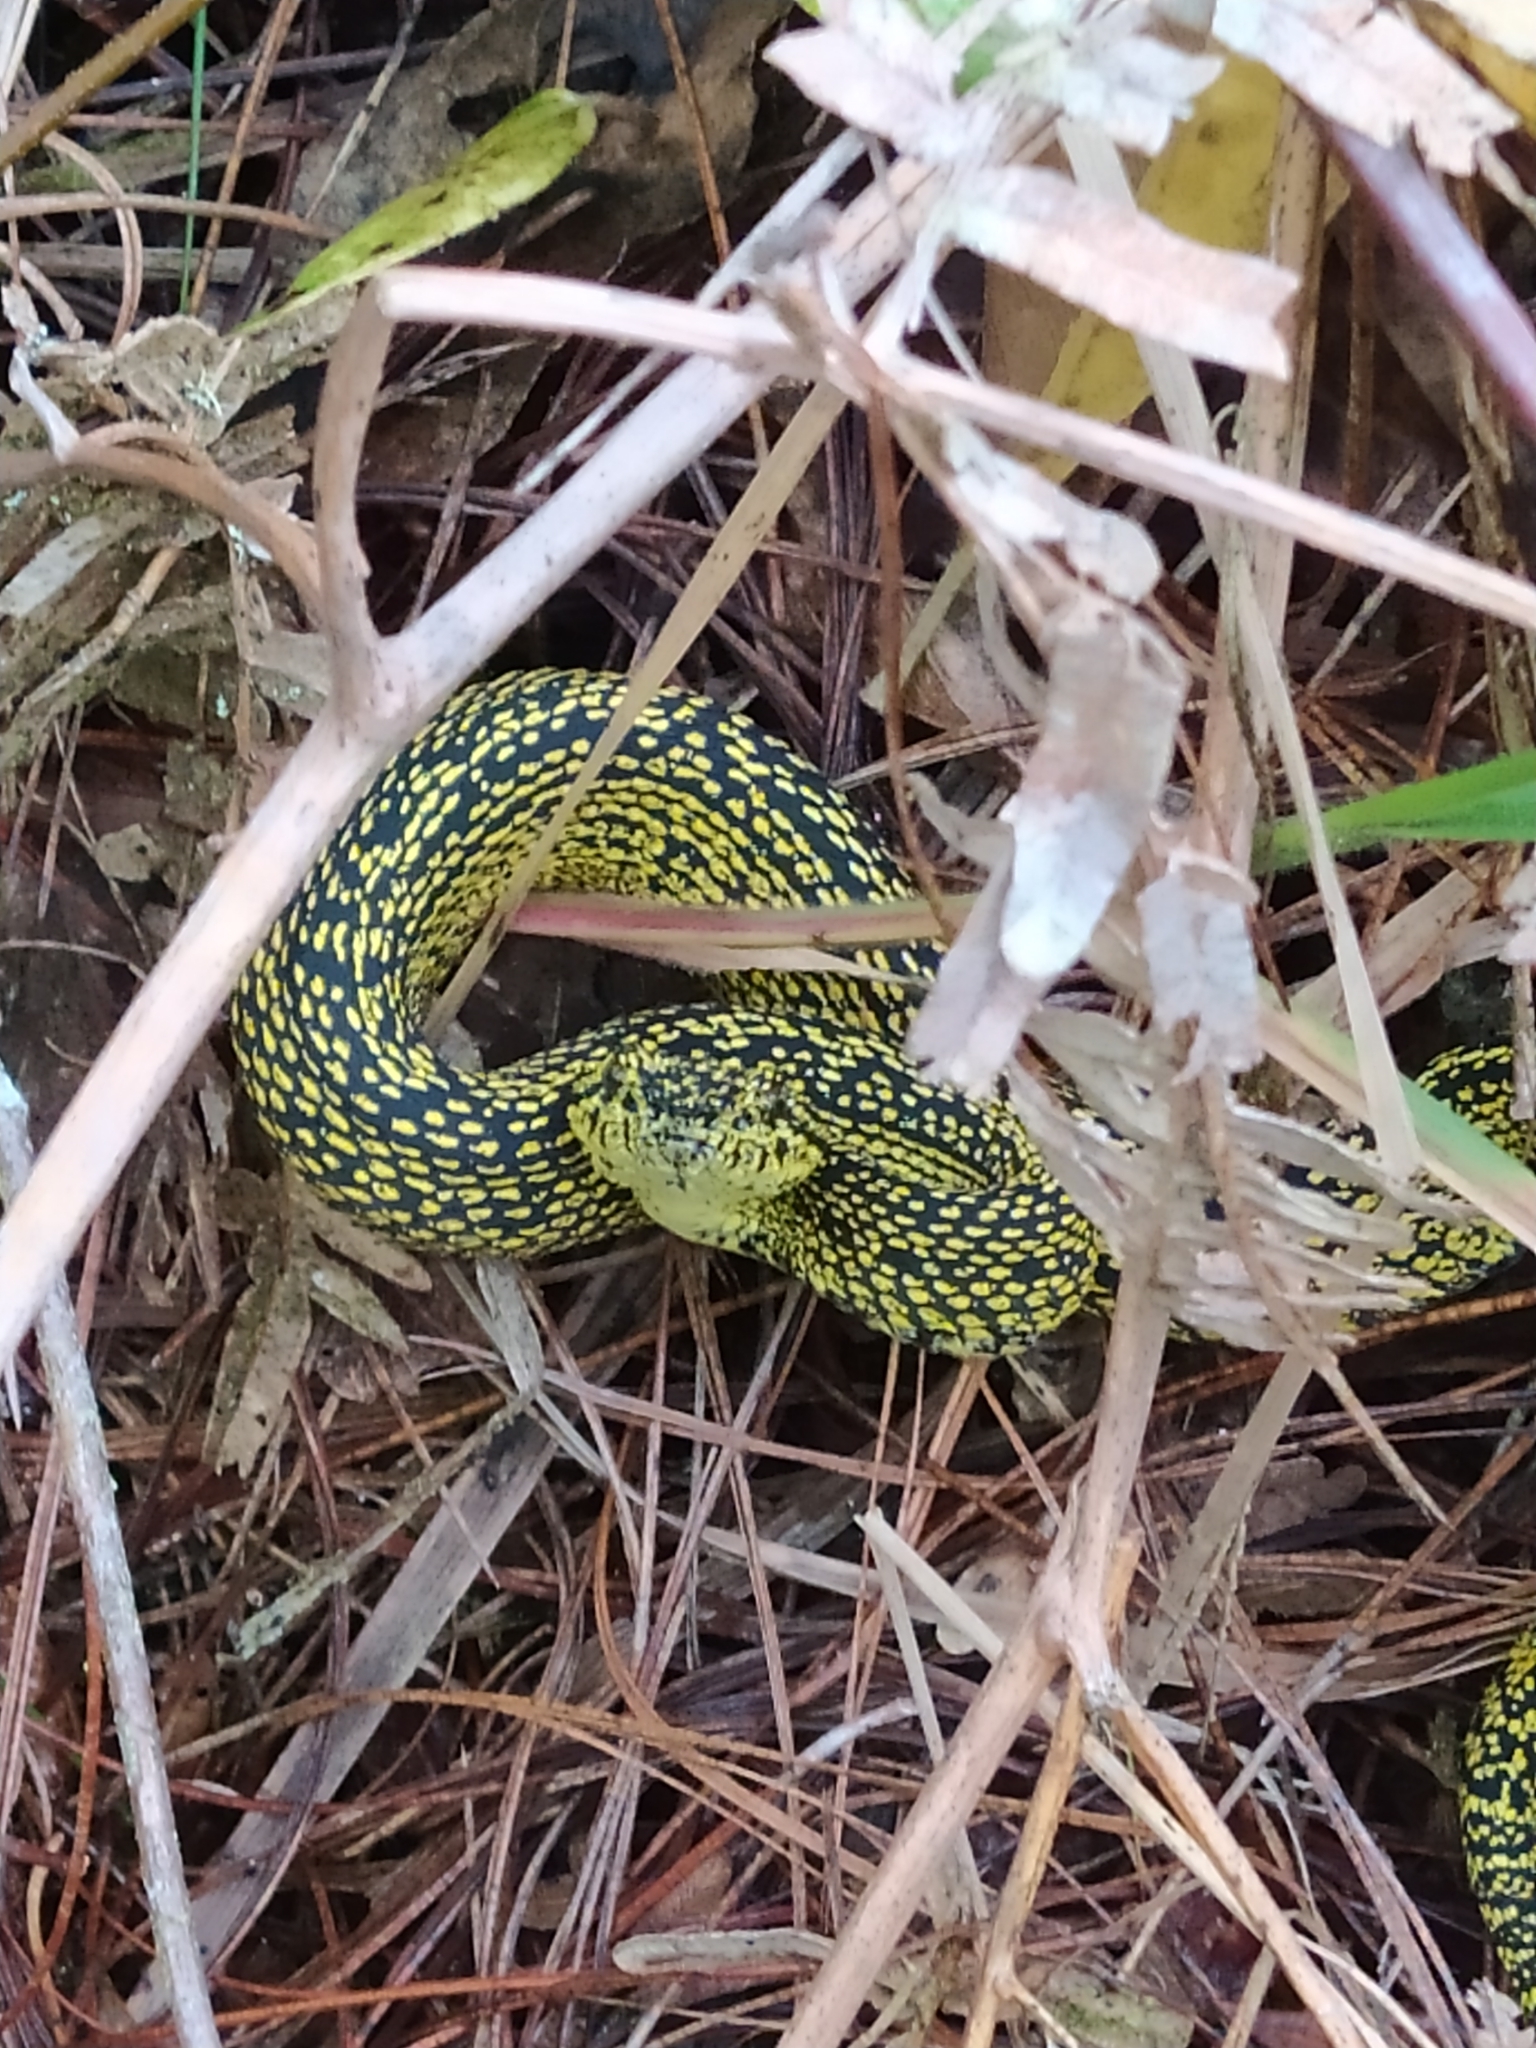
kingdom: Animalia
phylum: Chordata
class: Squamata
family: Viperidae
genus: Bothriechis
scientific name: Bothriechis schlegelii
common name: Eyelash viper
